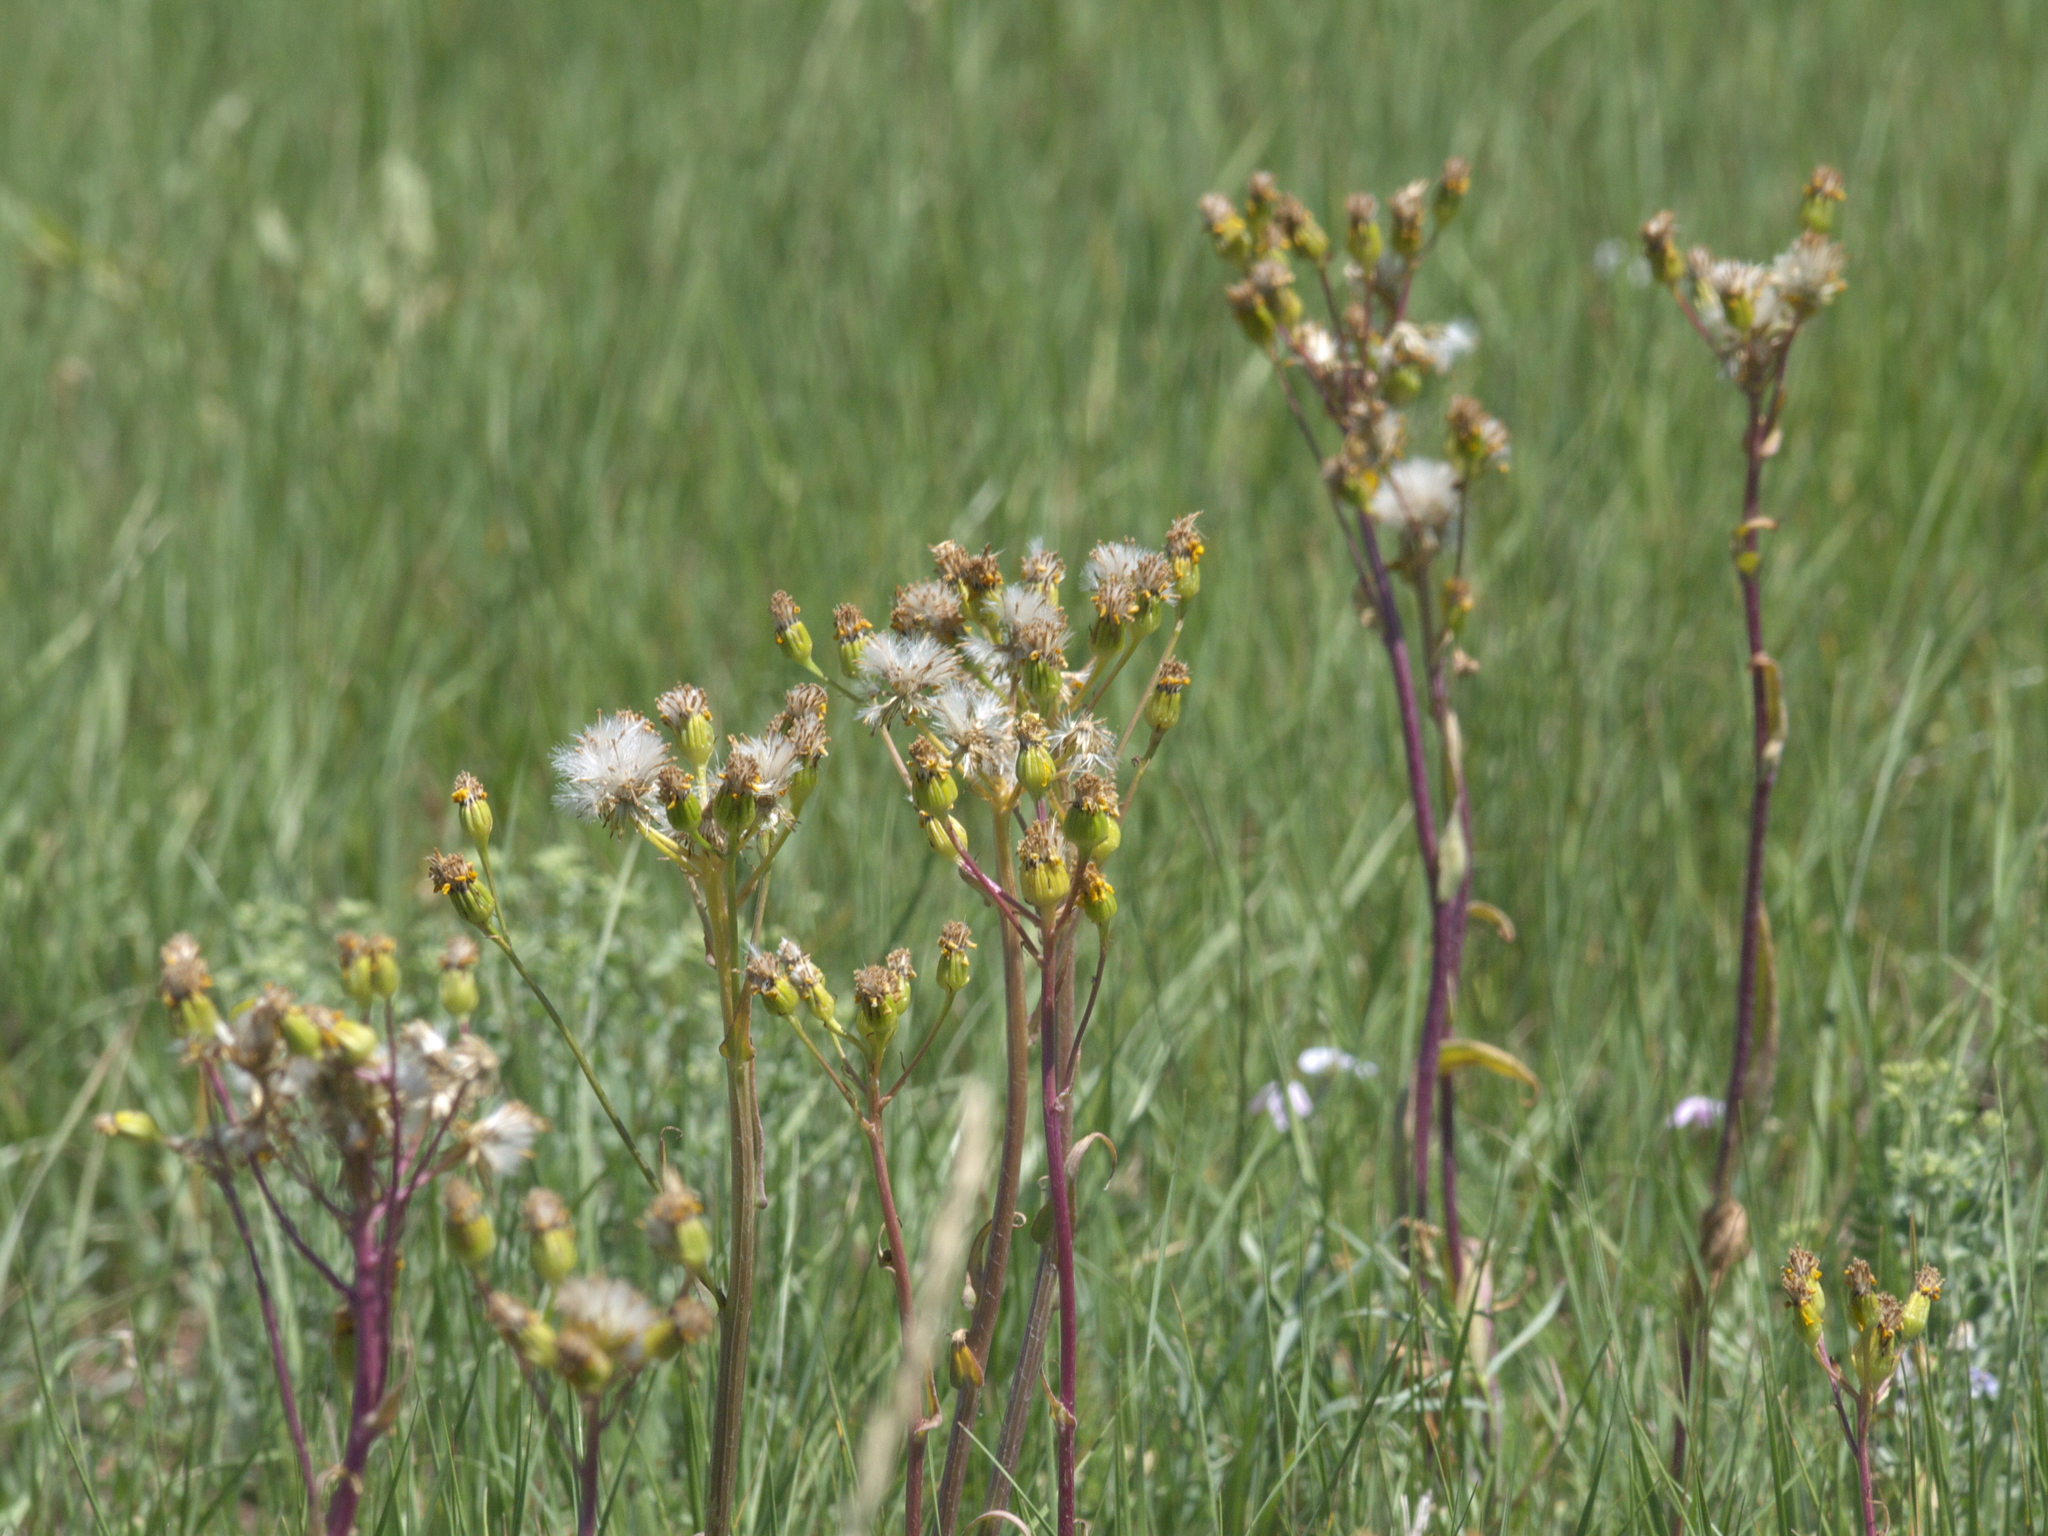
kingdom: Plantae
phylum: Tracheophyta
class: Magnoliopsida
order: Asterales
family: Asteraceae
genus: Senecio
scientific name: Senecio integerrimus
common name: Gaugeplant
